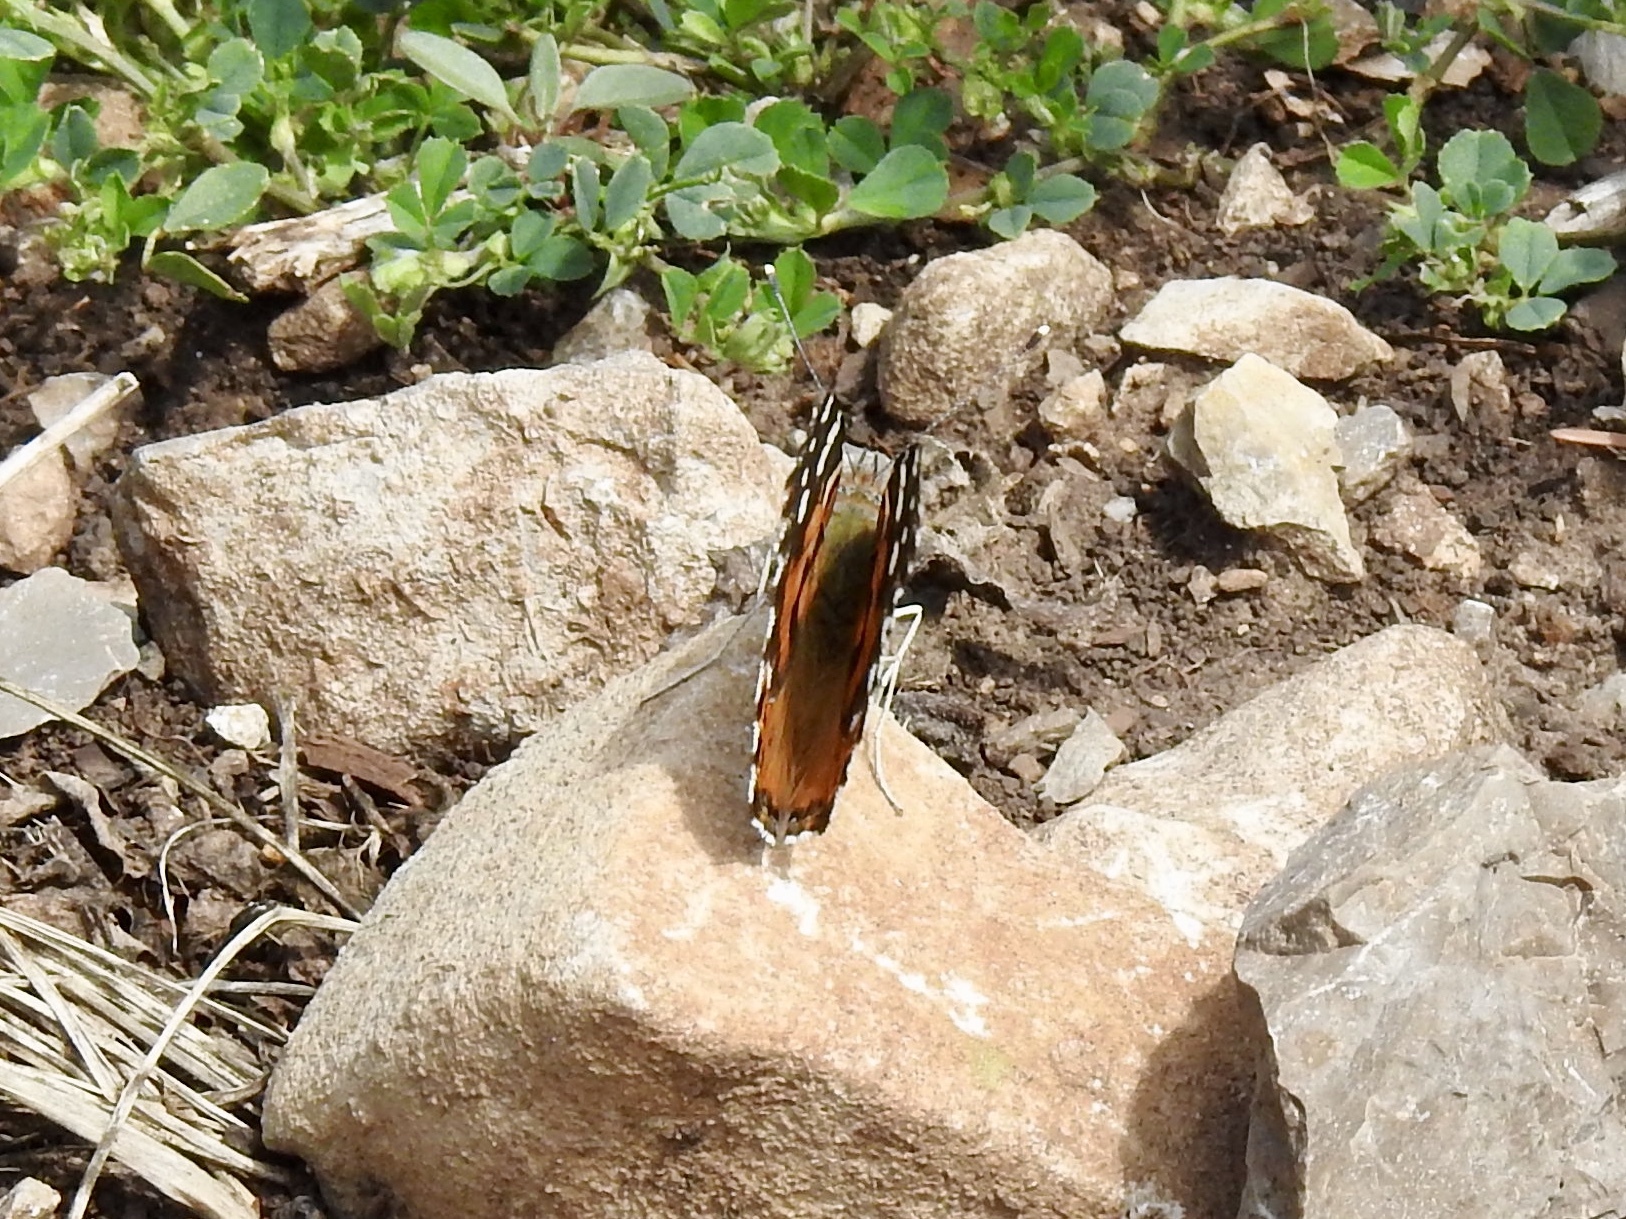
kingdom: Animalia
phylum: Arthropoda
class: Insecta
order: Lepidoptera
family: Nymphalidae
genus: Vanessa
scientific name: Vanessa cardui
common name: Painted lady
